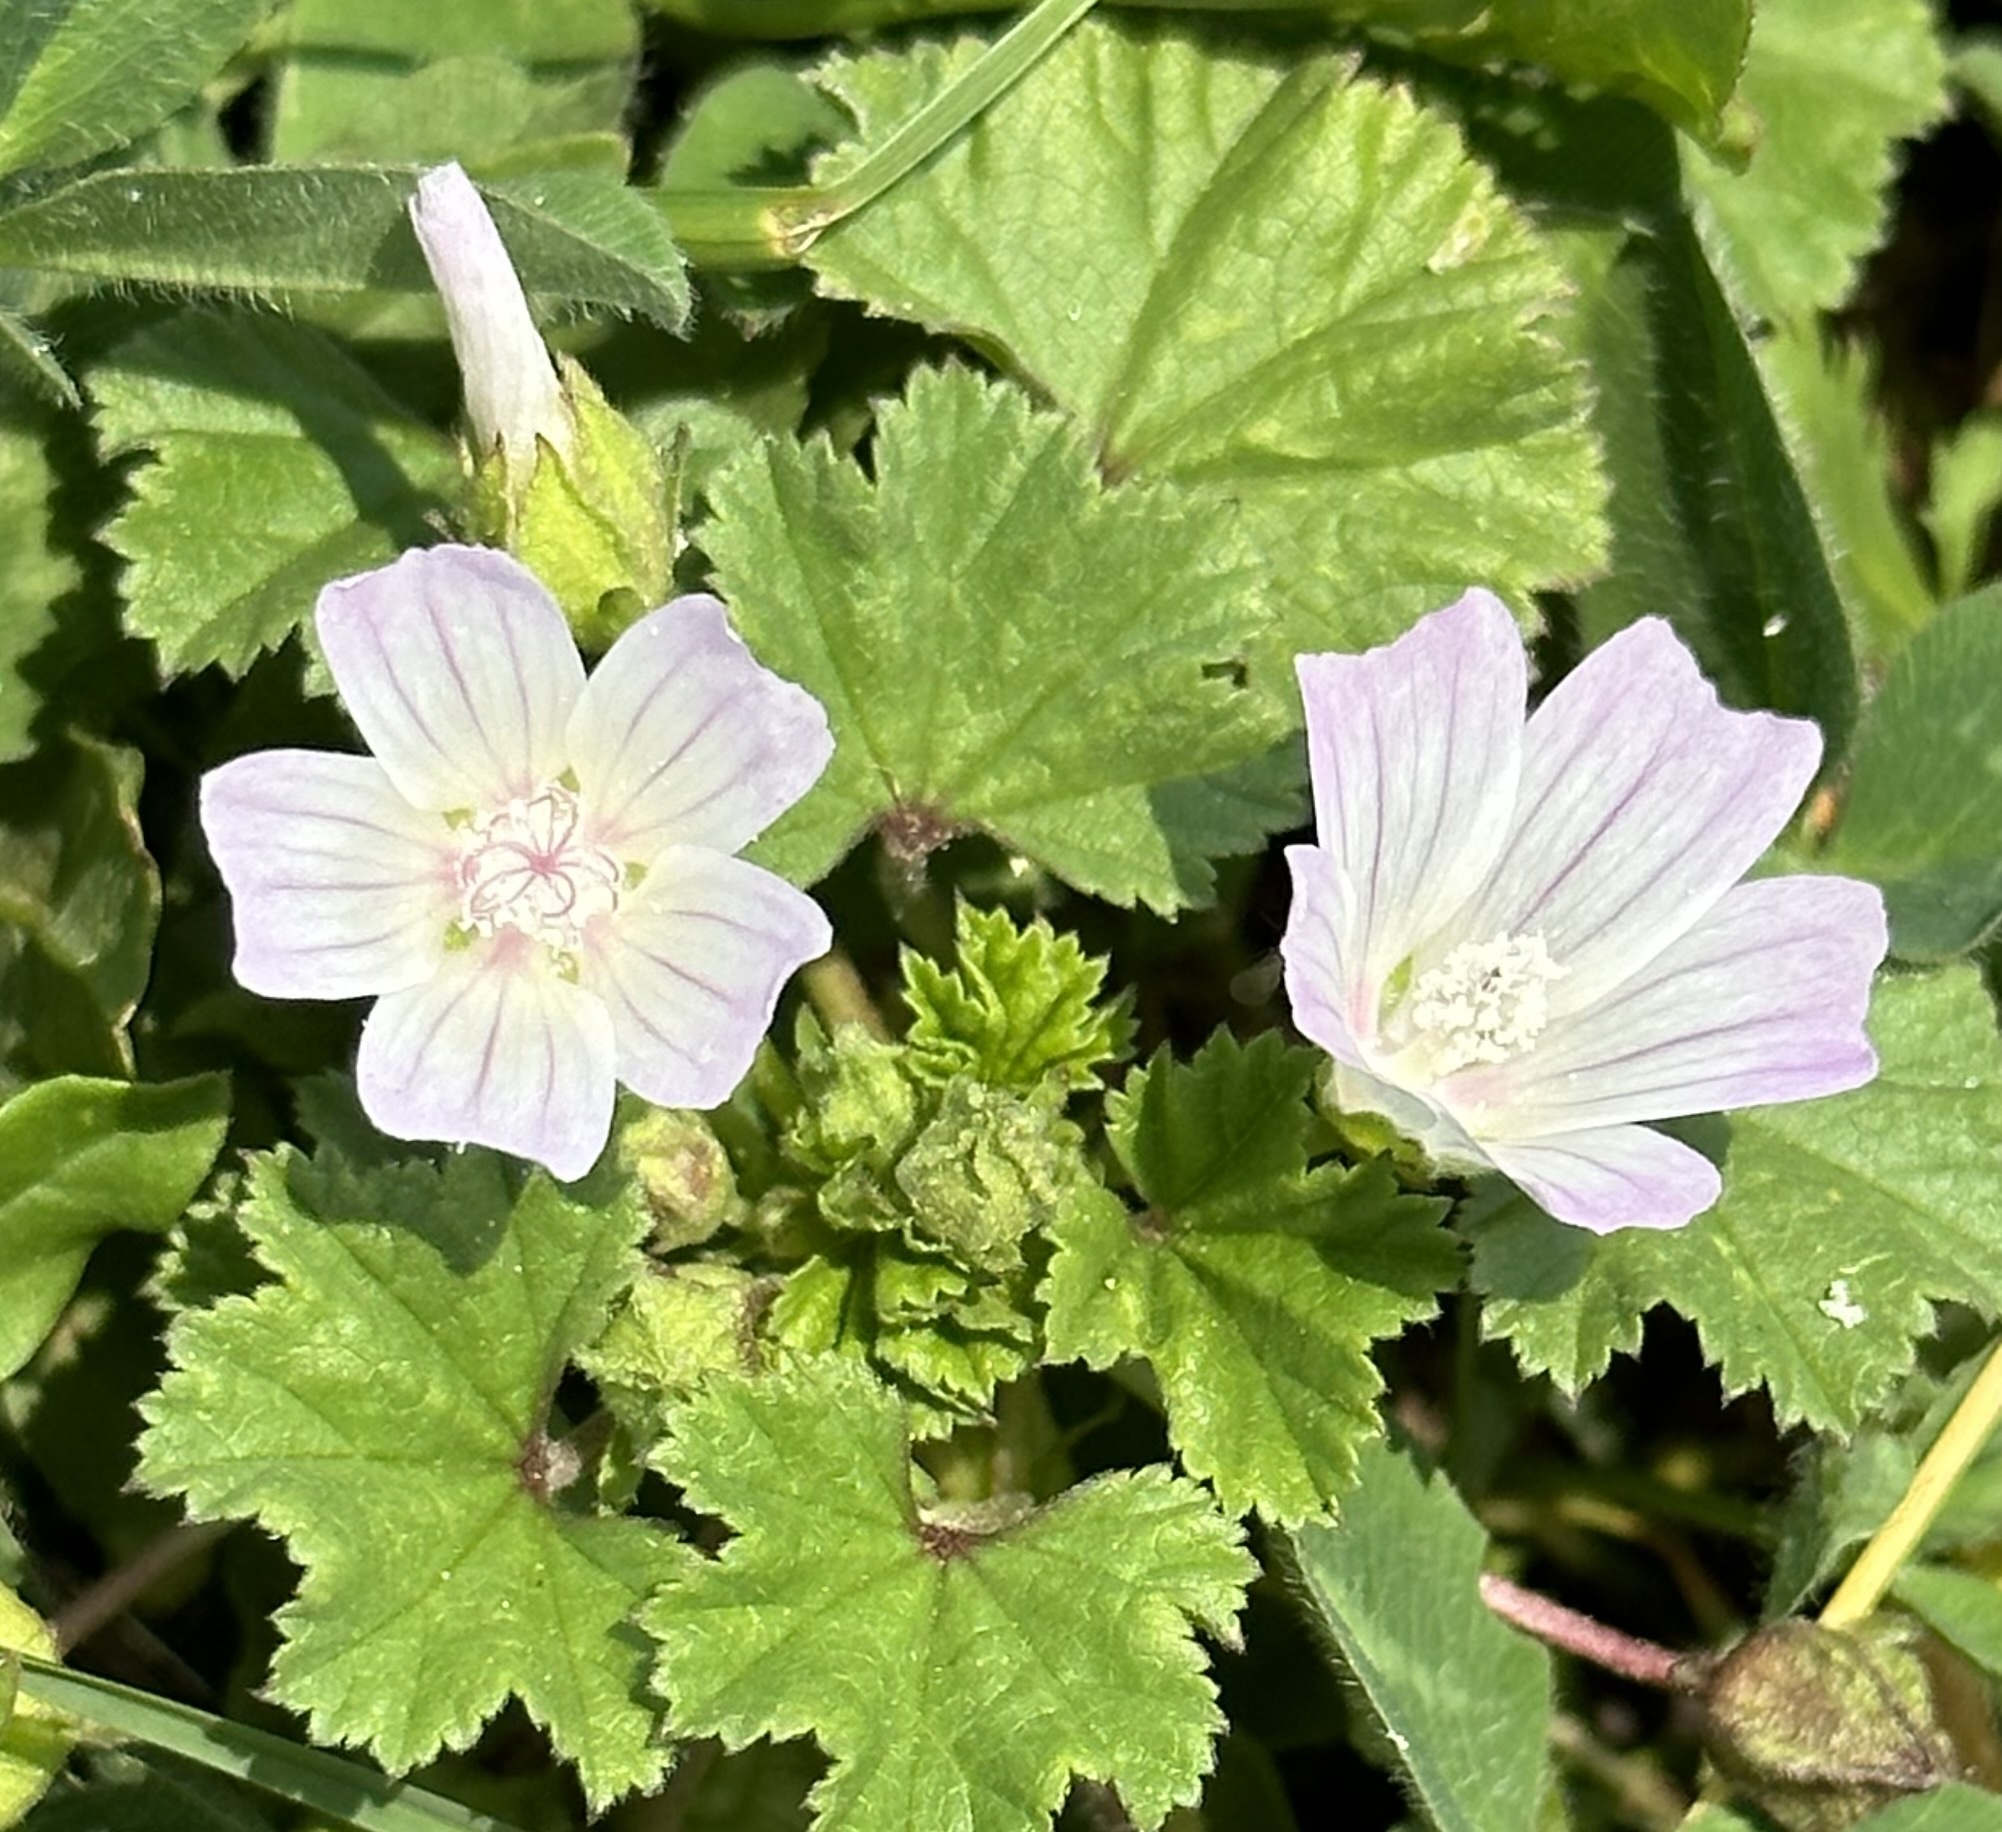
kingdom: Plantae
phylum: Tracheophyta
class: Magnoliopsida
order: Malvales
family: Malvaceae
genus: Malva
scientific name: Malva neglecta
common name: Common mallow
